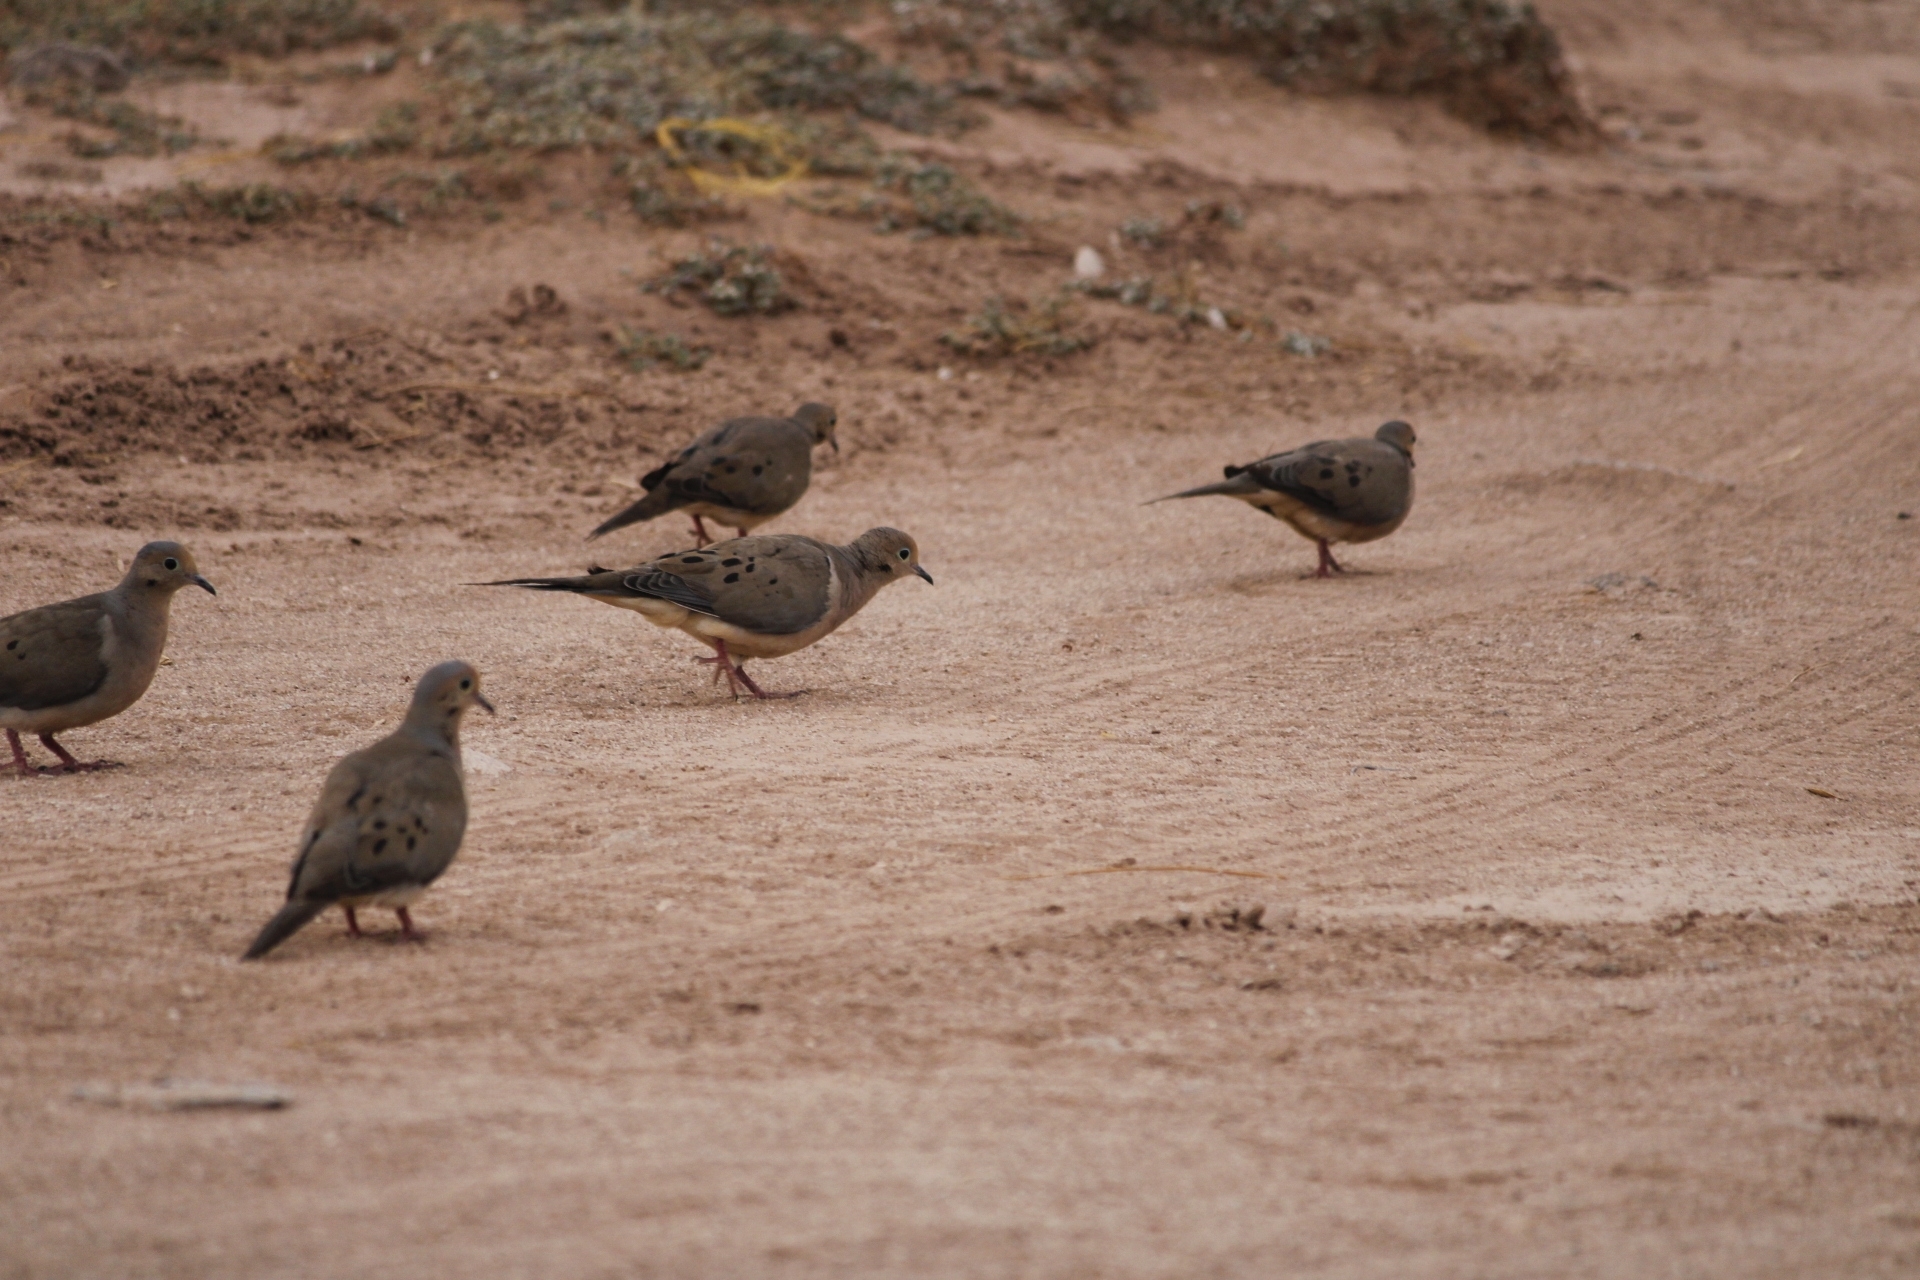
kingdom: Animalia
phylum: Chordata
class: Aves
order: Columbiformes
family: Columbidae
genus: Zenaida
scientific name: Zenaida macroura
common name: Mourning dove
